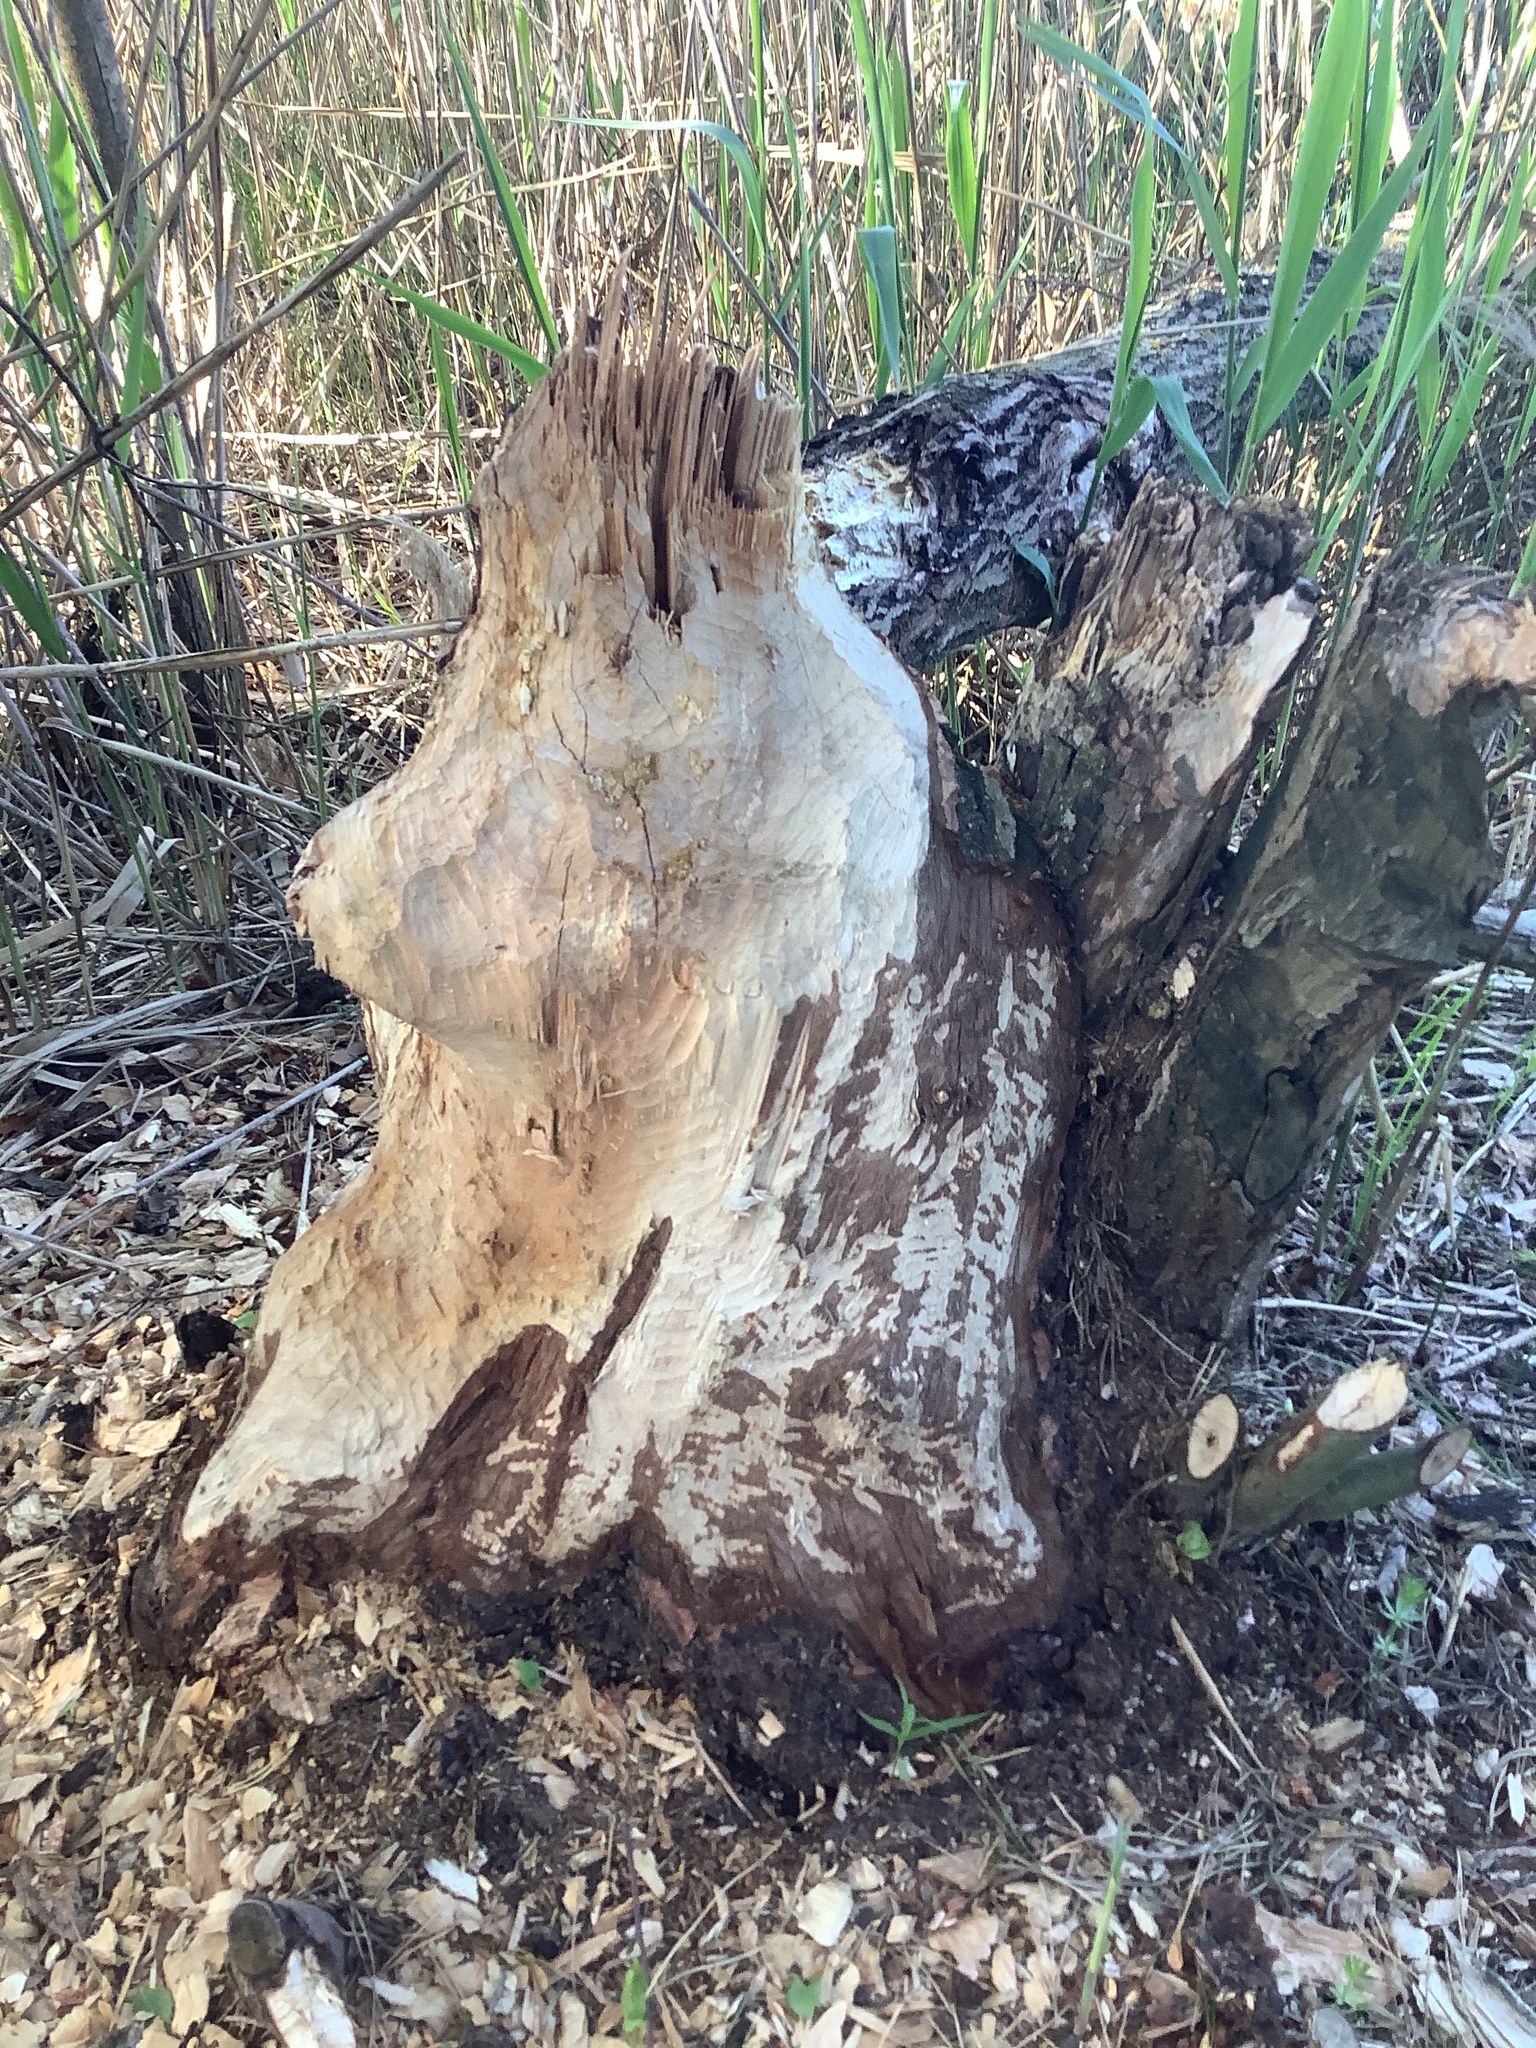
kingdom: Animalia
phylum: Chordata
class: Mammalia
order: Rodentia
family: Castoridae
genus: Castor
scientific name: Castor fiber
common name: Eurasian beaver
